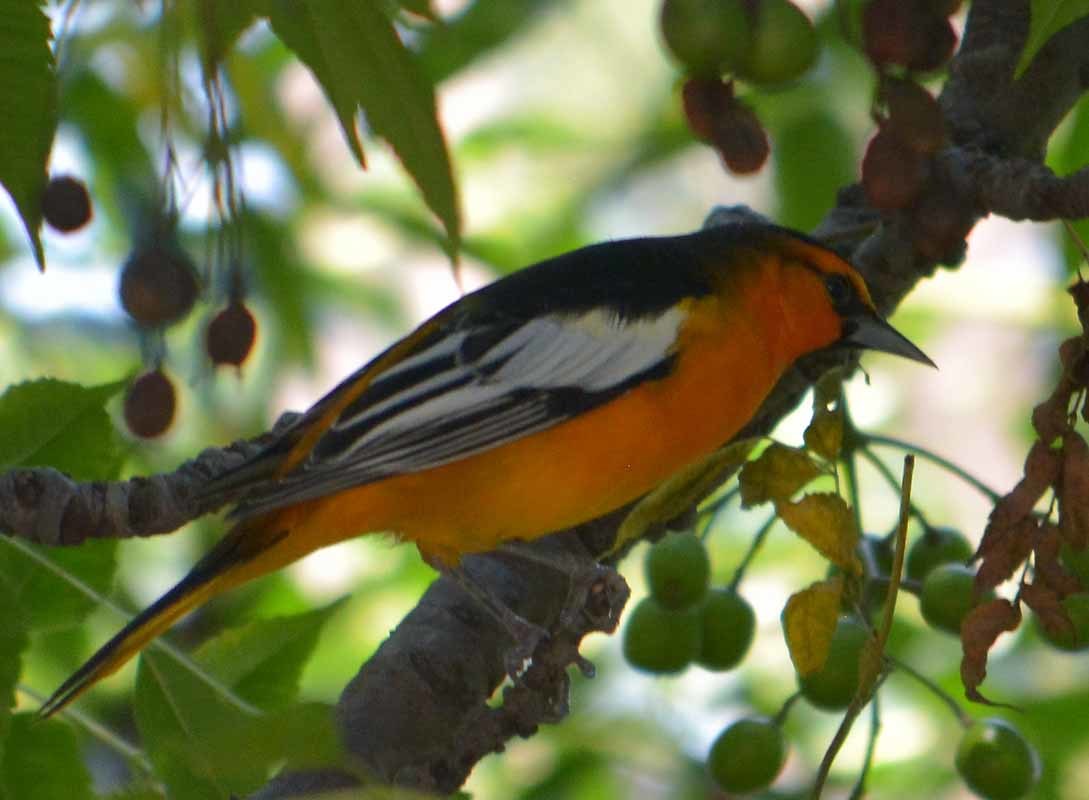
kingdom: Animalia
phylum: Chordata
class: Aves
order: Passeriformes
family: Icteridae
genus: Icterus
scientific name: Icterus bullockii
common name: Bullock's oriole
